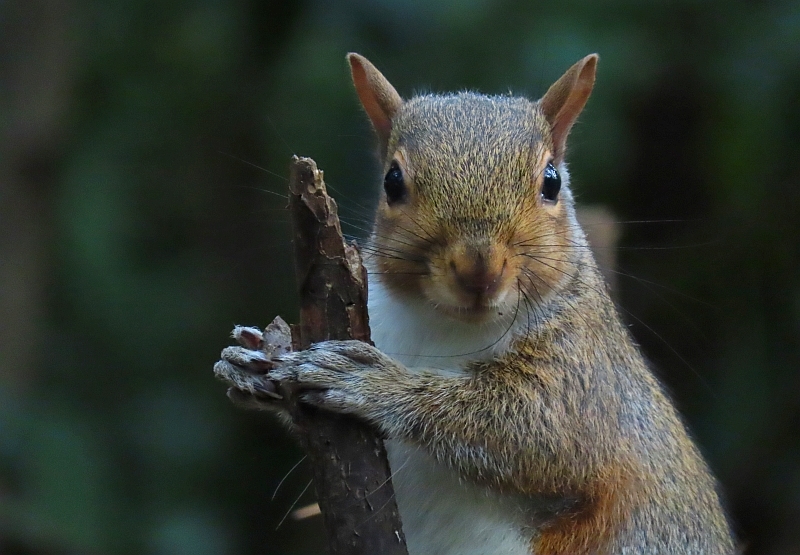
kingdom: Animalia
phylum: Chordata
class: Mammalia
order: Rodentia
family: Sciuridae
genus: Sciurus
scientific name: Sciurus carolinensis
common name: Eastern gray squirrel
